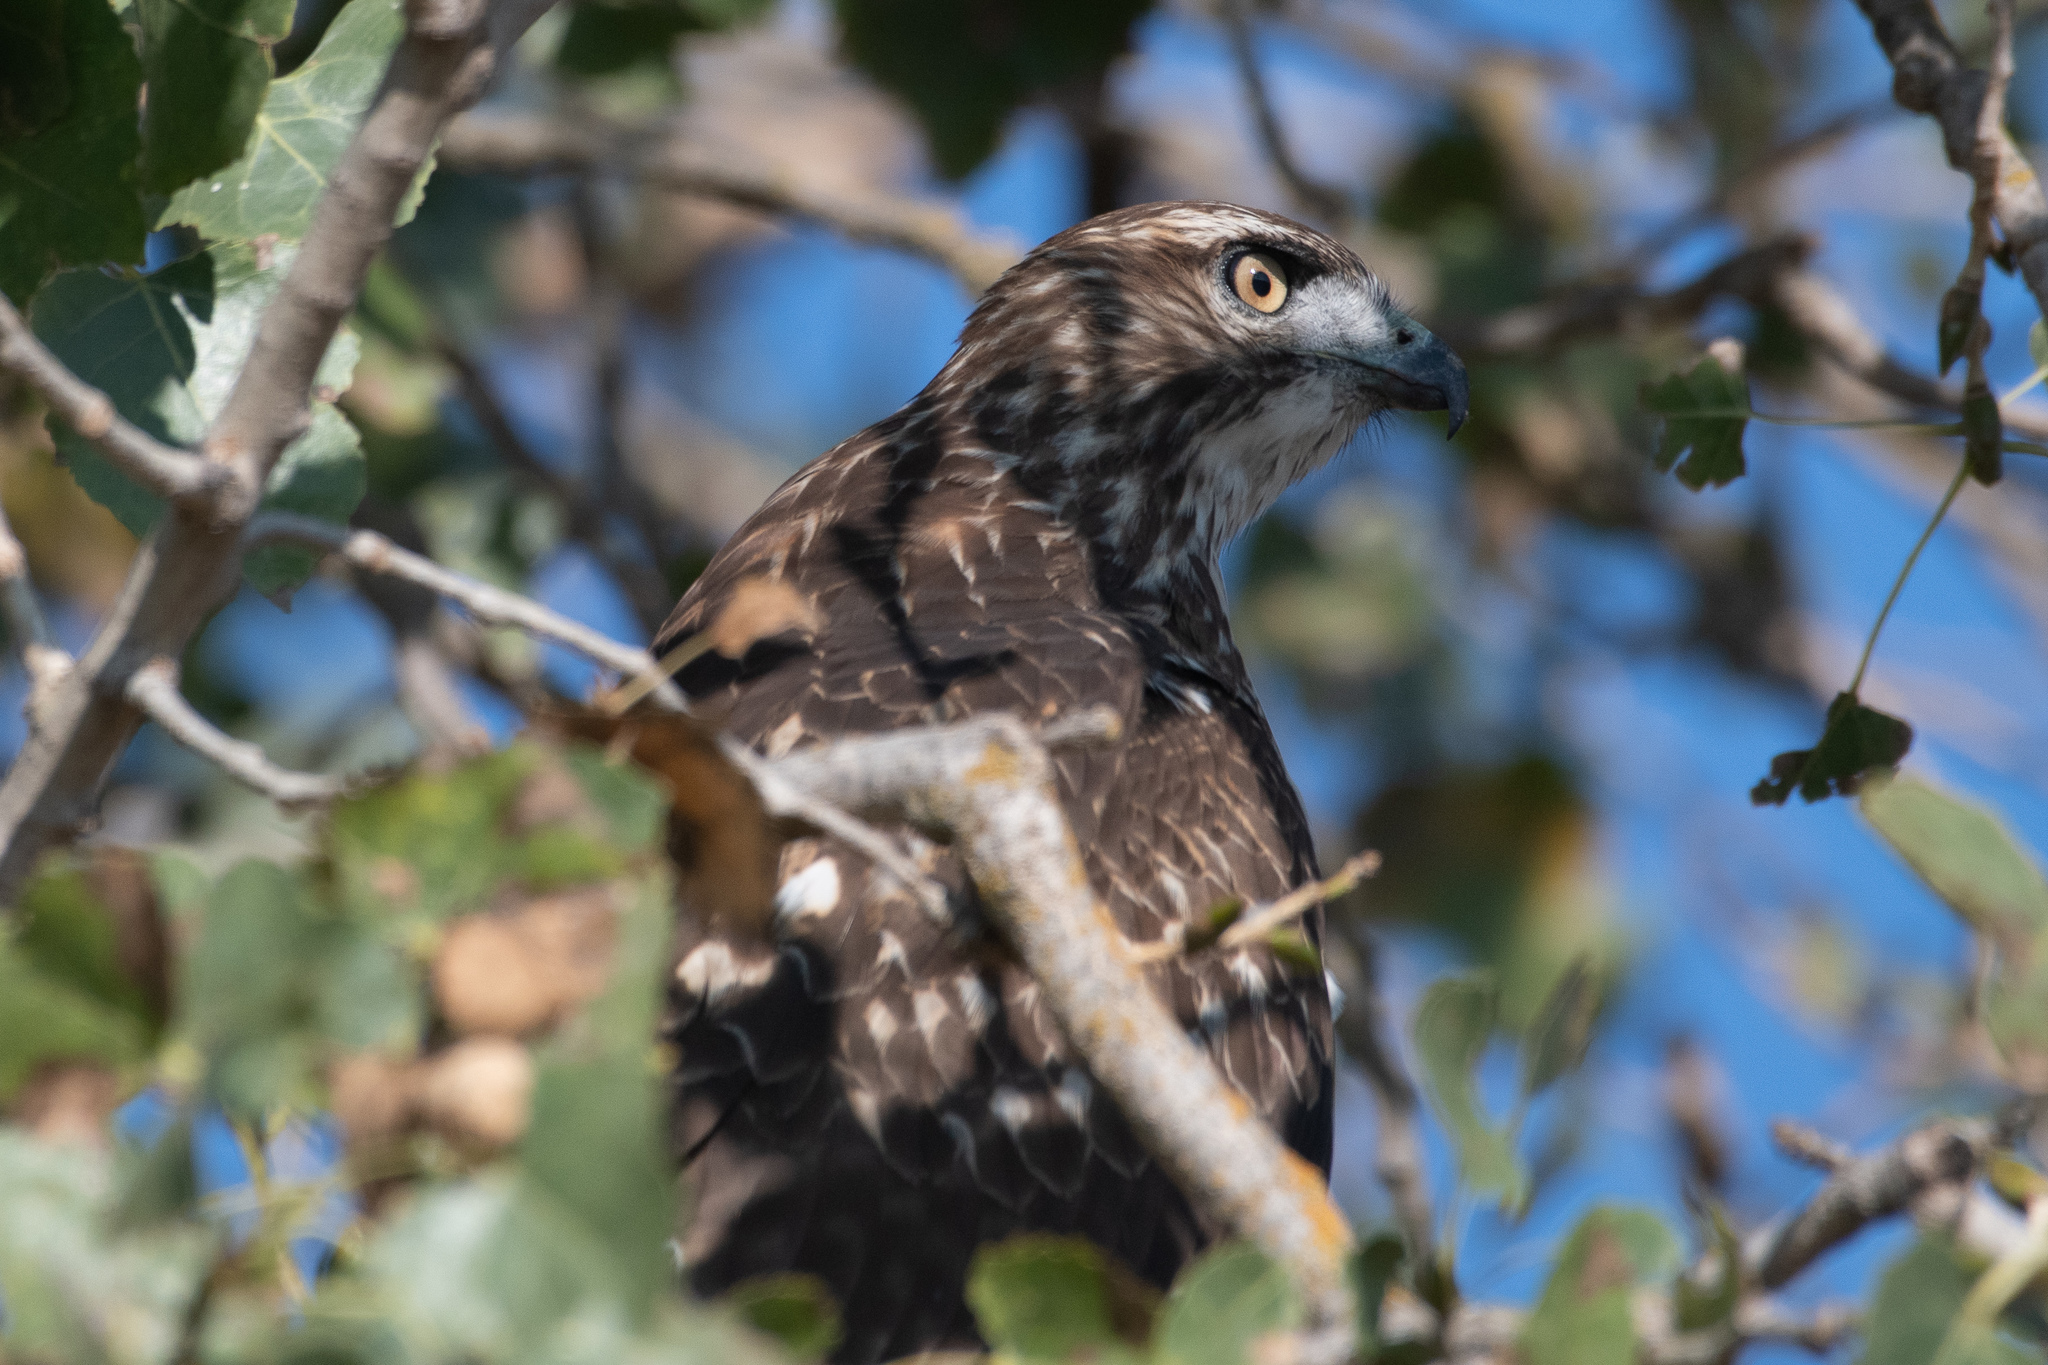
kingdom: Animalia
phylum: Chordata
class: Aves
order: Accipitriformes
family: Accipitridae
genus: Buteo
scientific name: Buteo jamaicensis
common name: Red-tailed hawk
